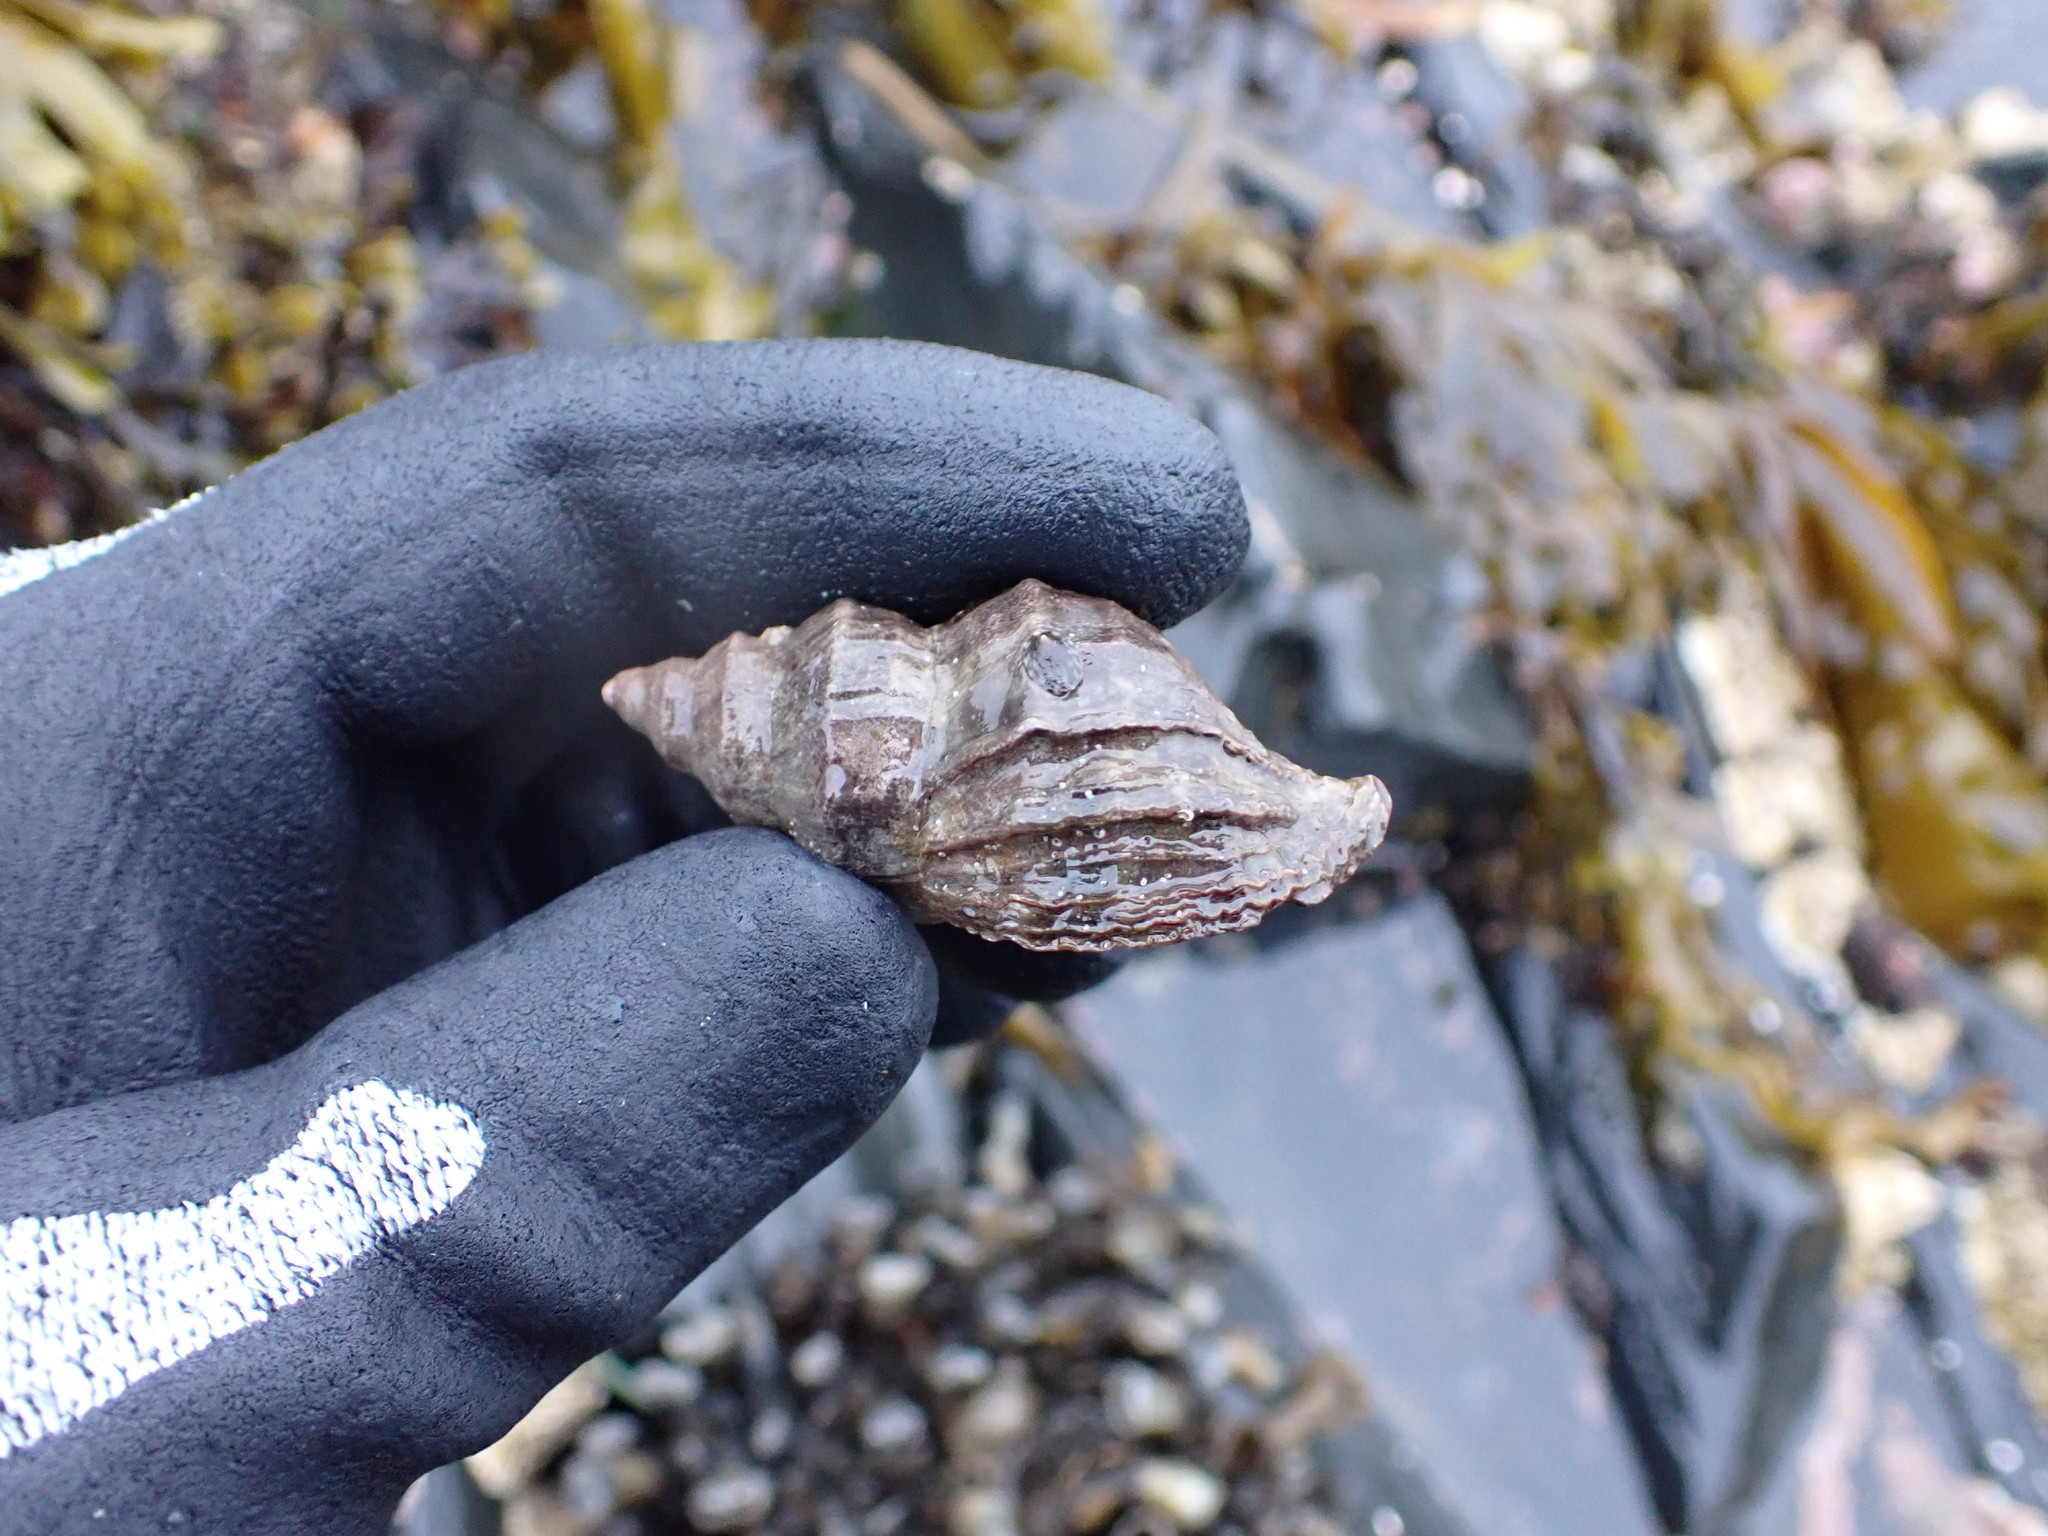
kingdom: Animalia
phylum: Mollusca
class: Gastropoda
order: Neogastropoda
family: Muricidae
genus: Nucella
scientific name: Nucella lamellosa
